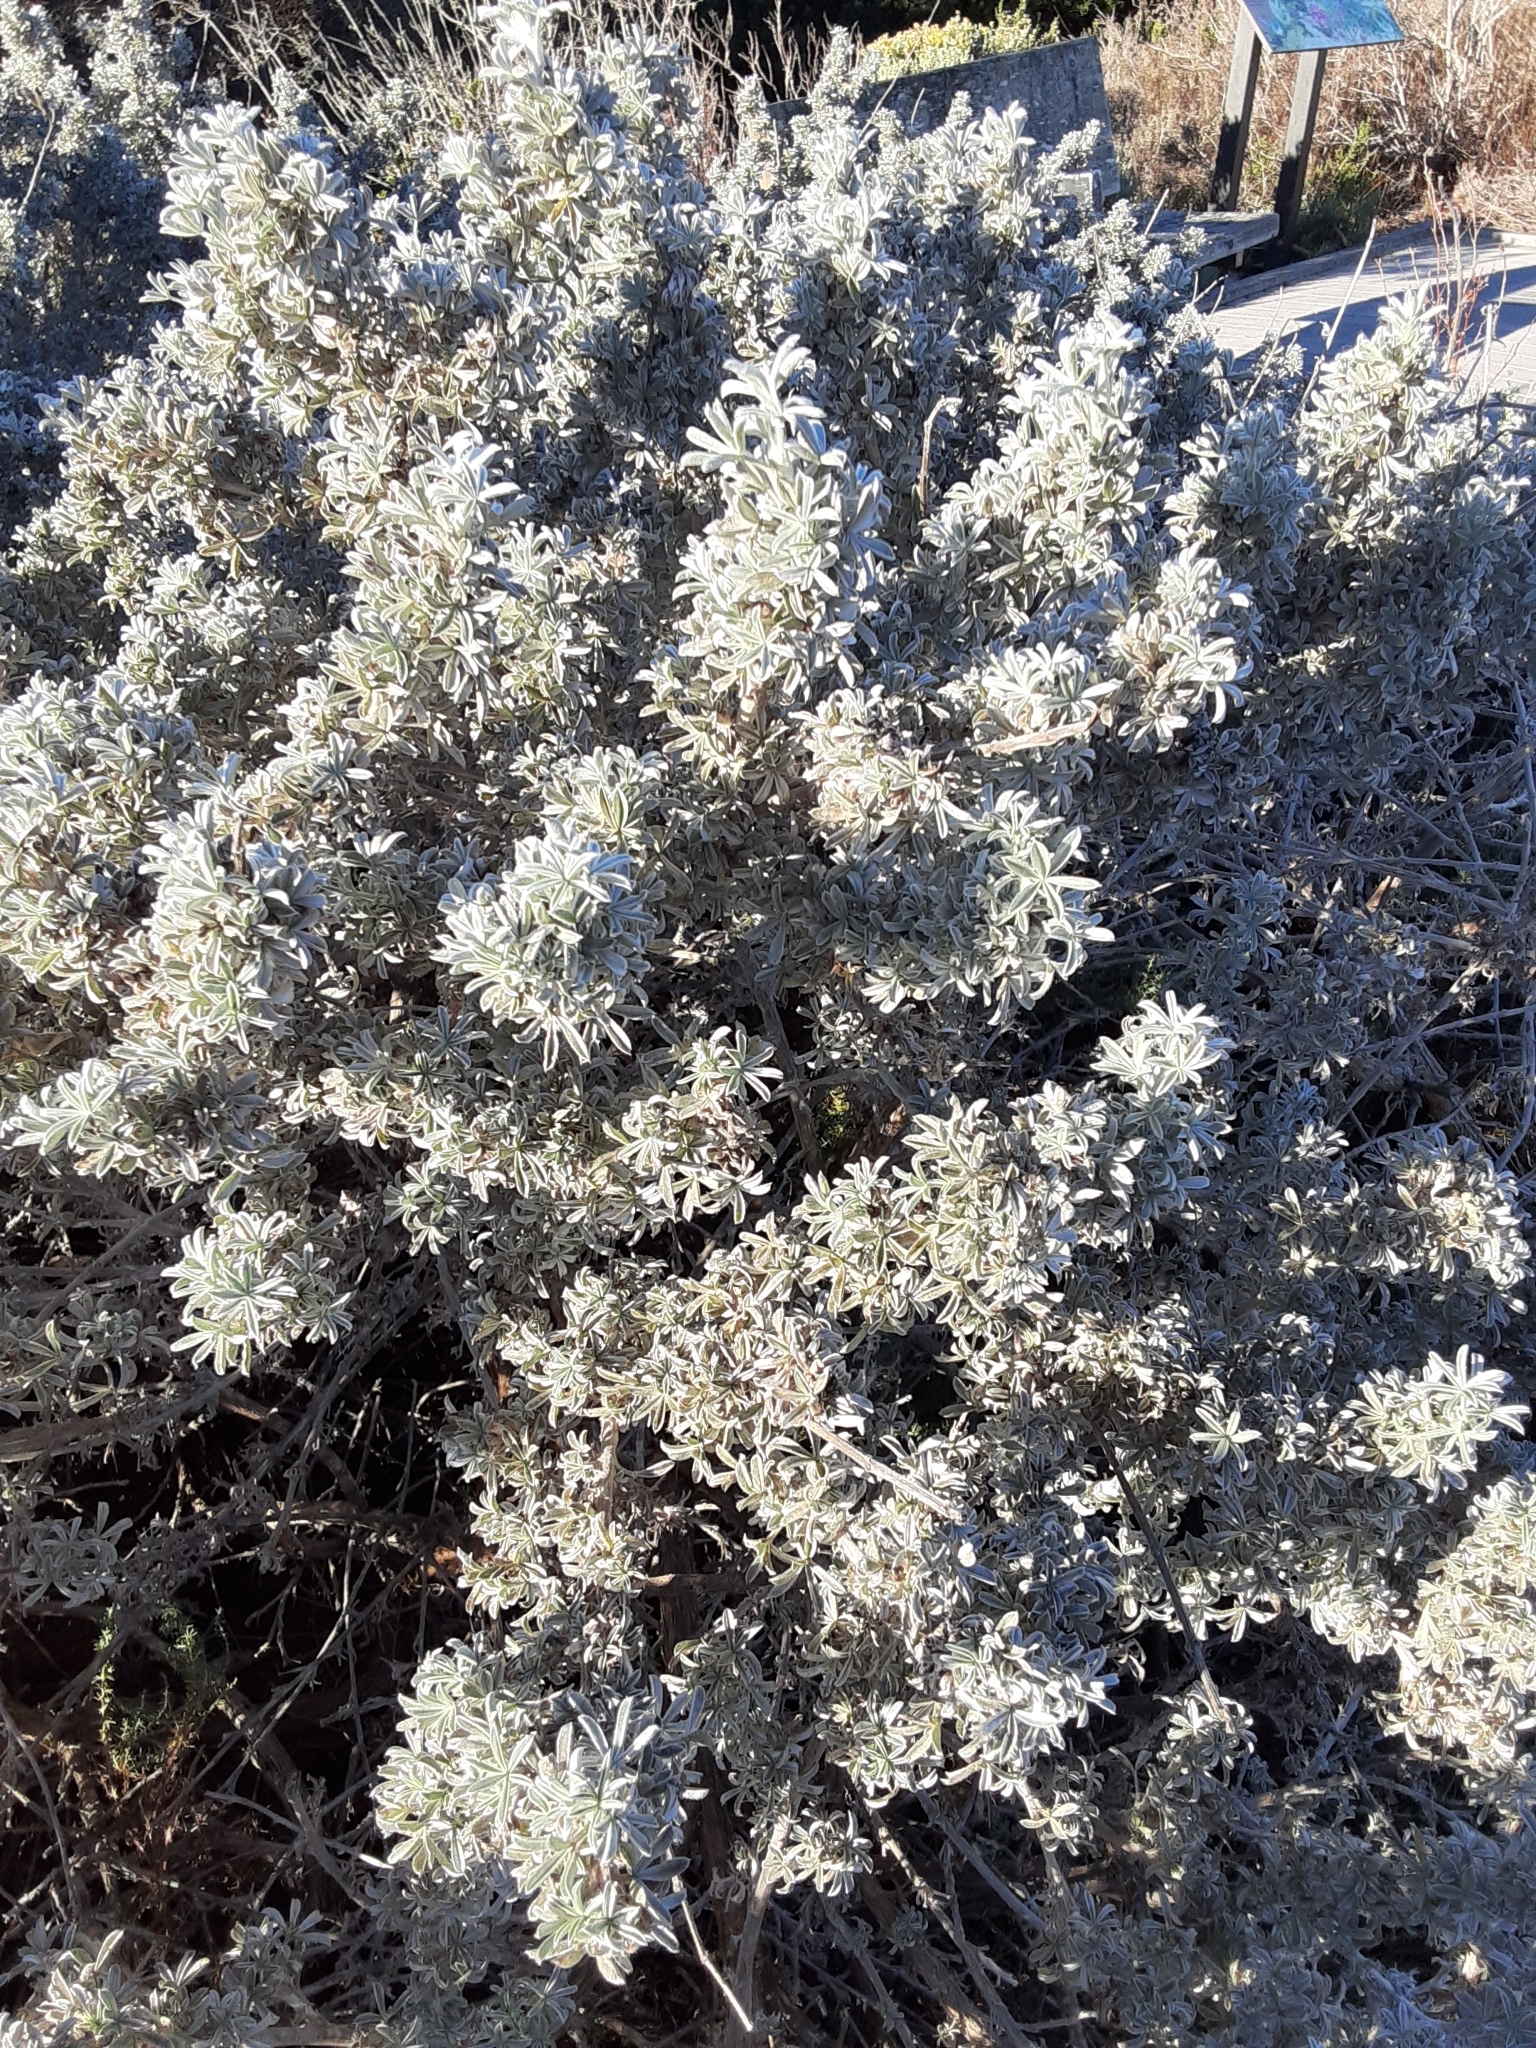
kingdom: Plantae
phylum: Tracheophyta
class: Magnoliopsida
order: Fabales
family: Fabaceae
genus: Lupinus
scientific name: Lupinus chamissonis
